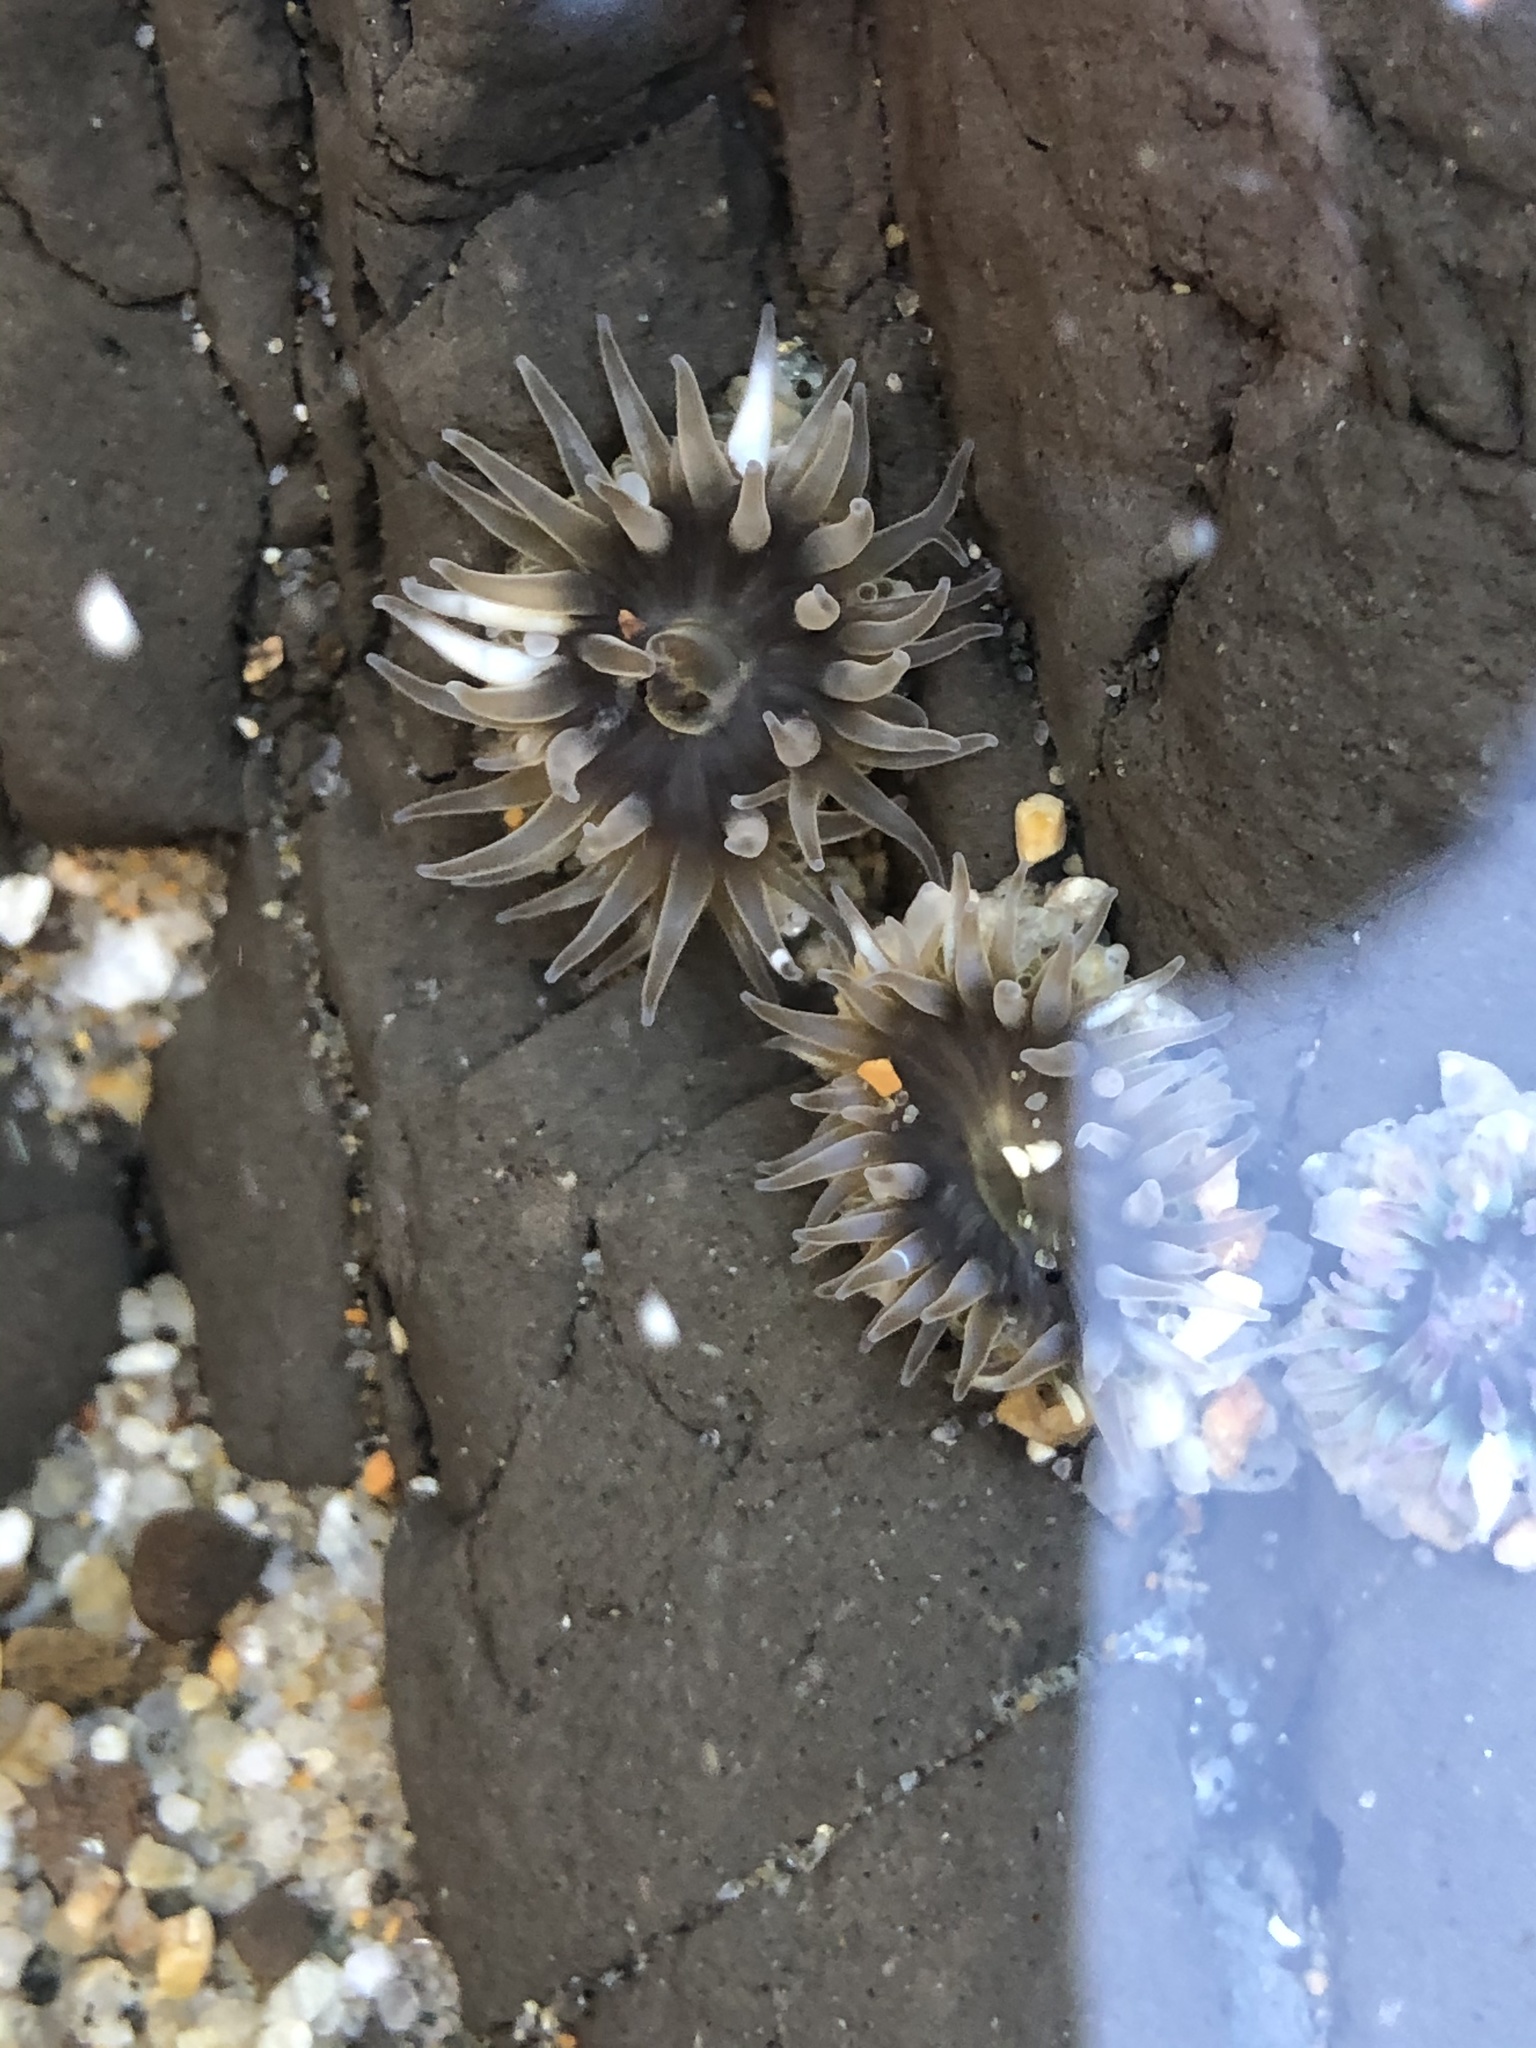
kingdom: Animalia
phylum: Cnidaria
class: Anthozoa
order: Actiniaria
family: Actiniidae
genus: Anthopleura
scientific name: Anthopleura elegantissima
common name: Clonal anemone
